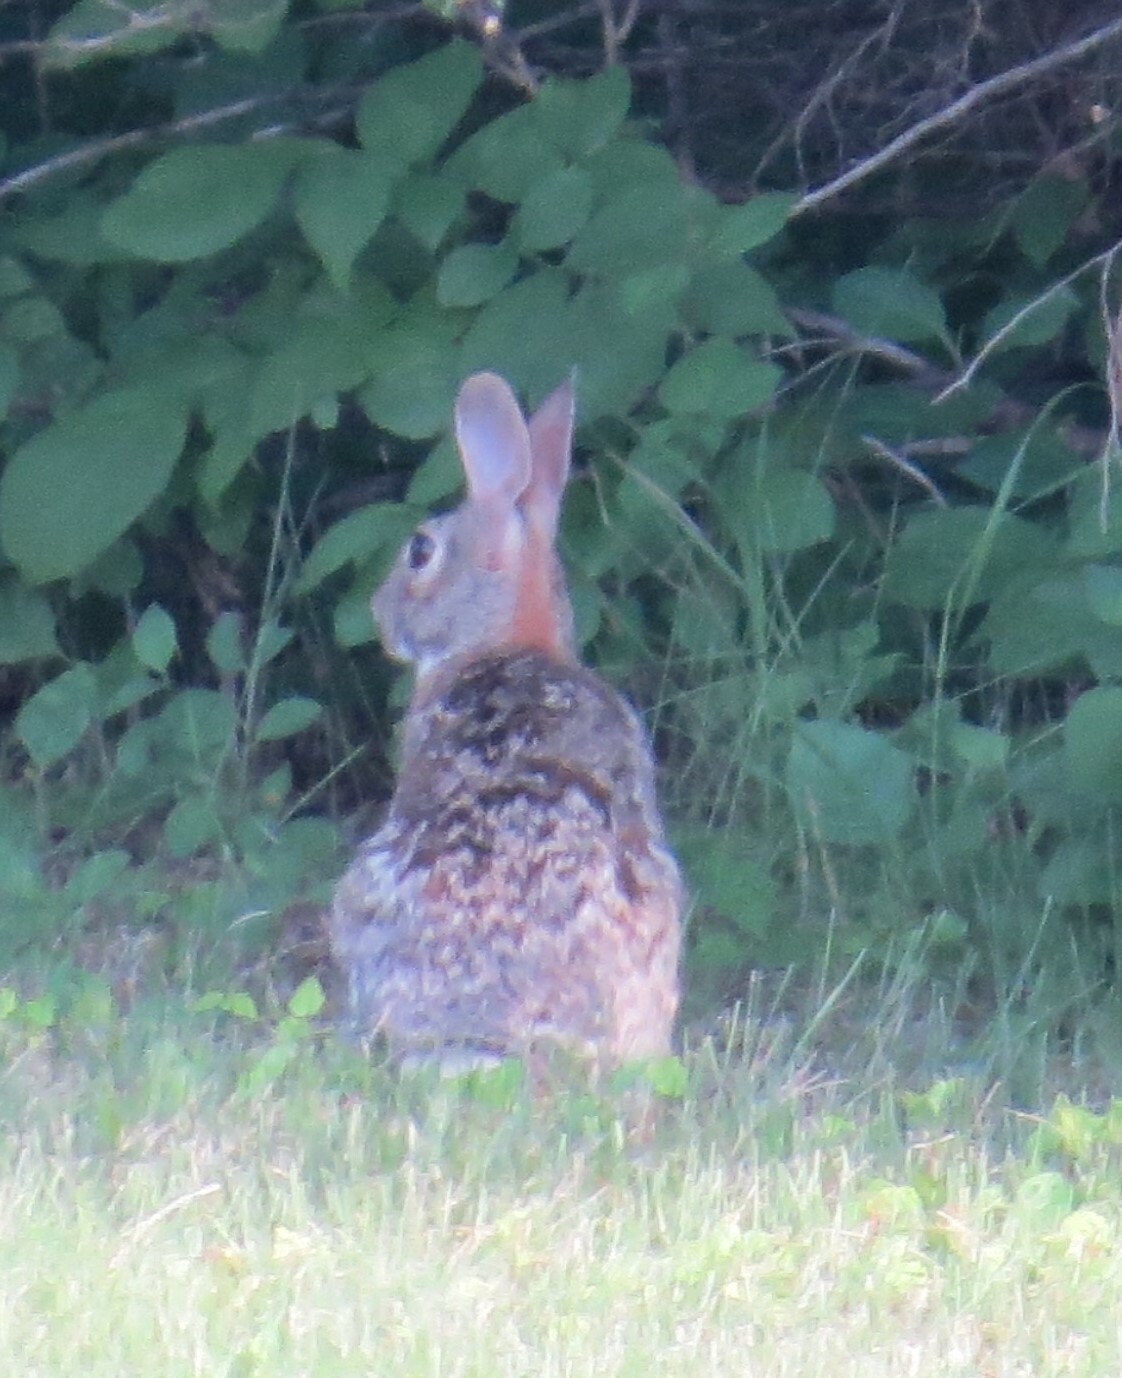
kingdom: Animalia
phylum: Chordata
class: Mammalia
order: Lagomorpha
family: Leporidae
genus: Sylvilagus
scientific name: Sylvilagus floridanus
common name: Eastern cottontail
